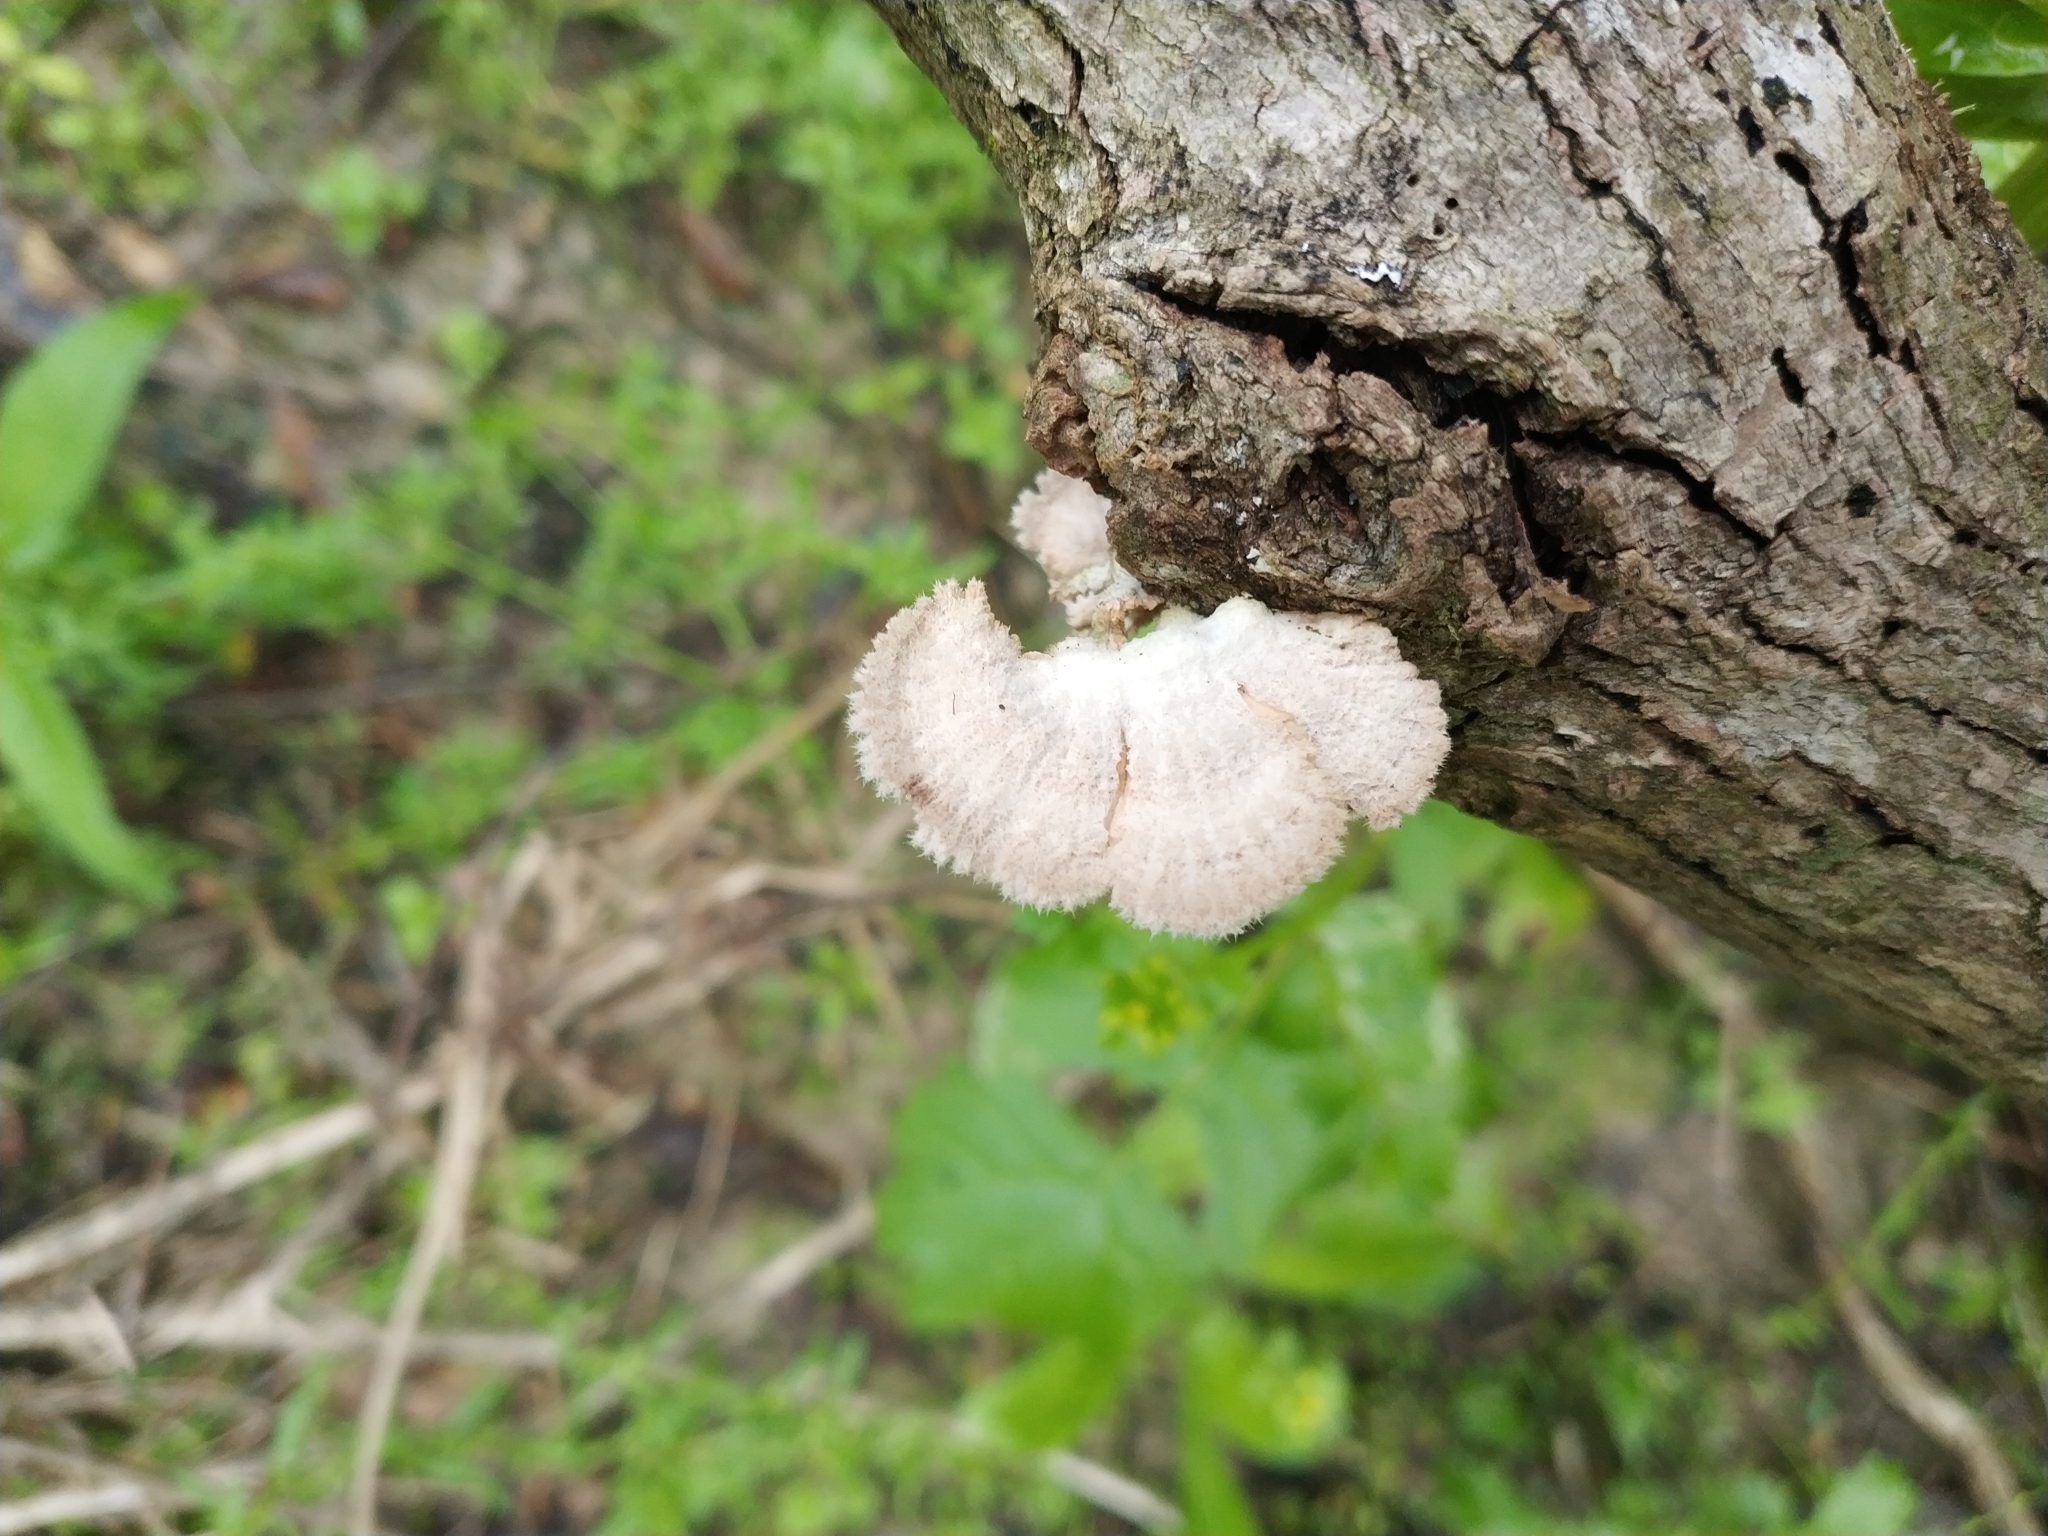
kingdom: Fungi
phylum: Basidiomycota
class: Agaricomycetes
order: Agaricales
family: Schizophyllaceae
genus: Schizophyllum
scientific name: Schizophyllum commune
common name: Common porecrust
